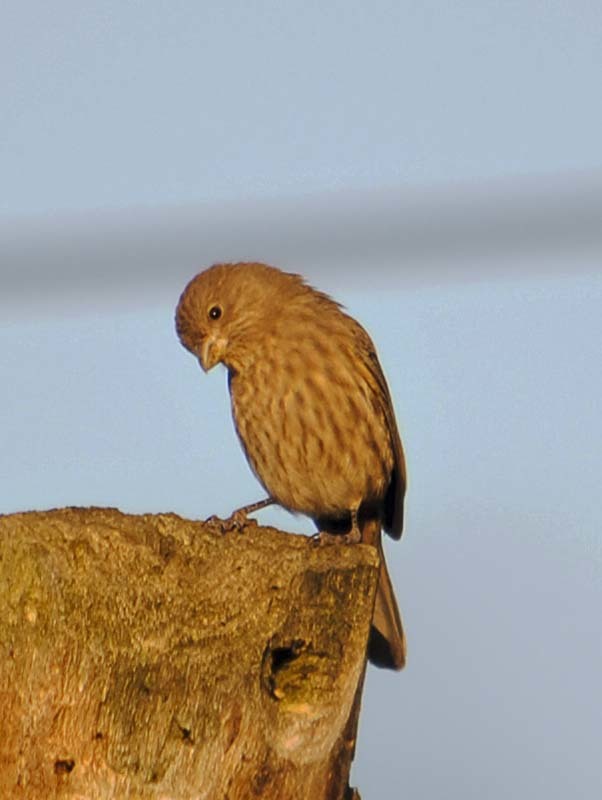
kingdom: Animalia
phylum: Chordata
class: Aves
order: Passeriformes
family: Fringillidae
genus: Haemorhous
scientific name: Haemorhous mexicanus
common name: House finch
